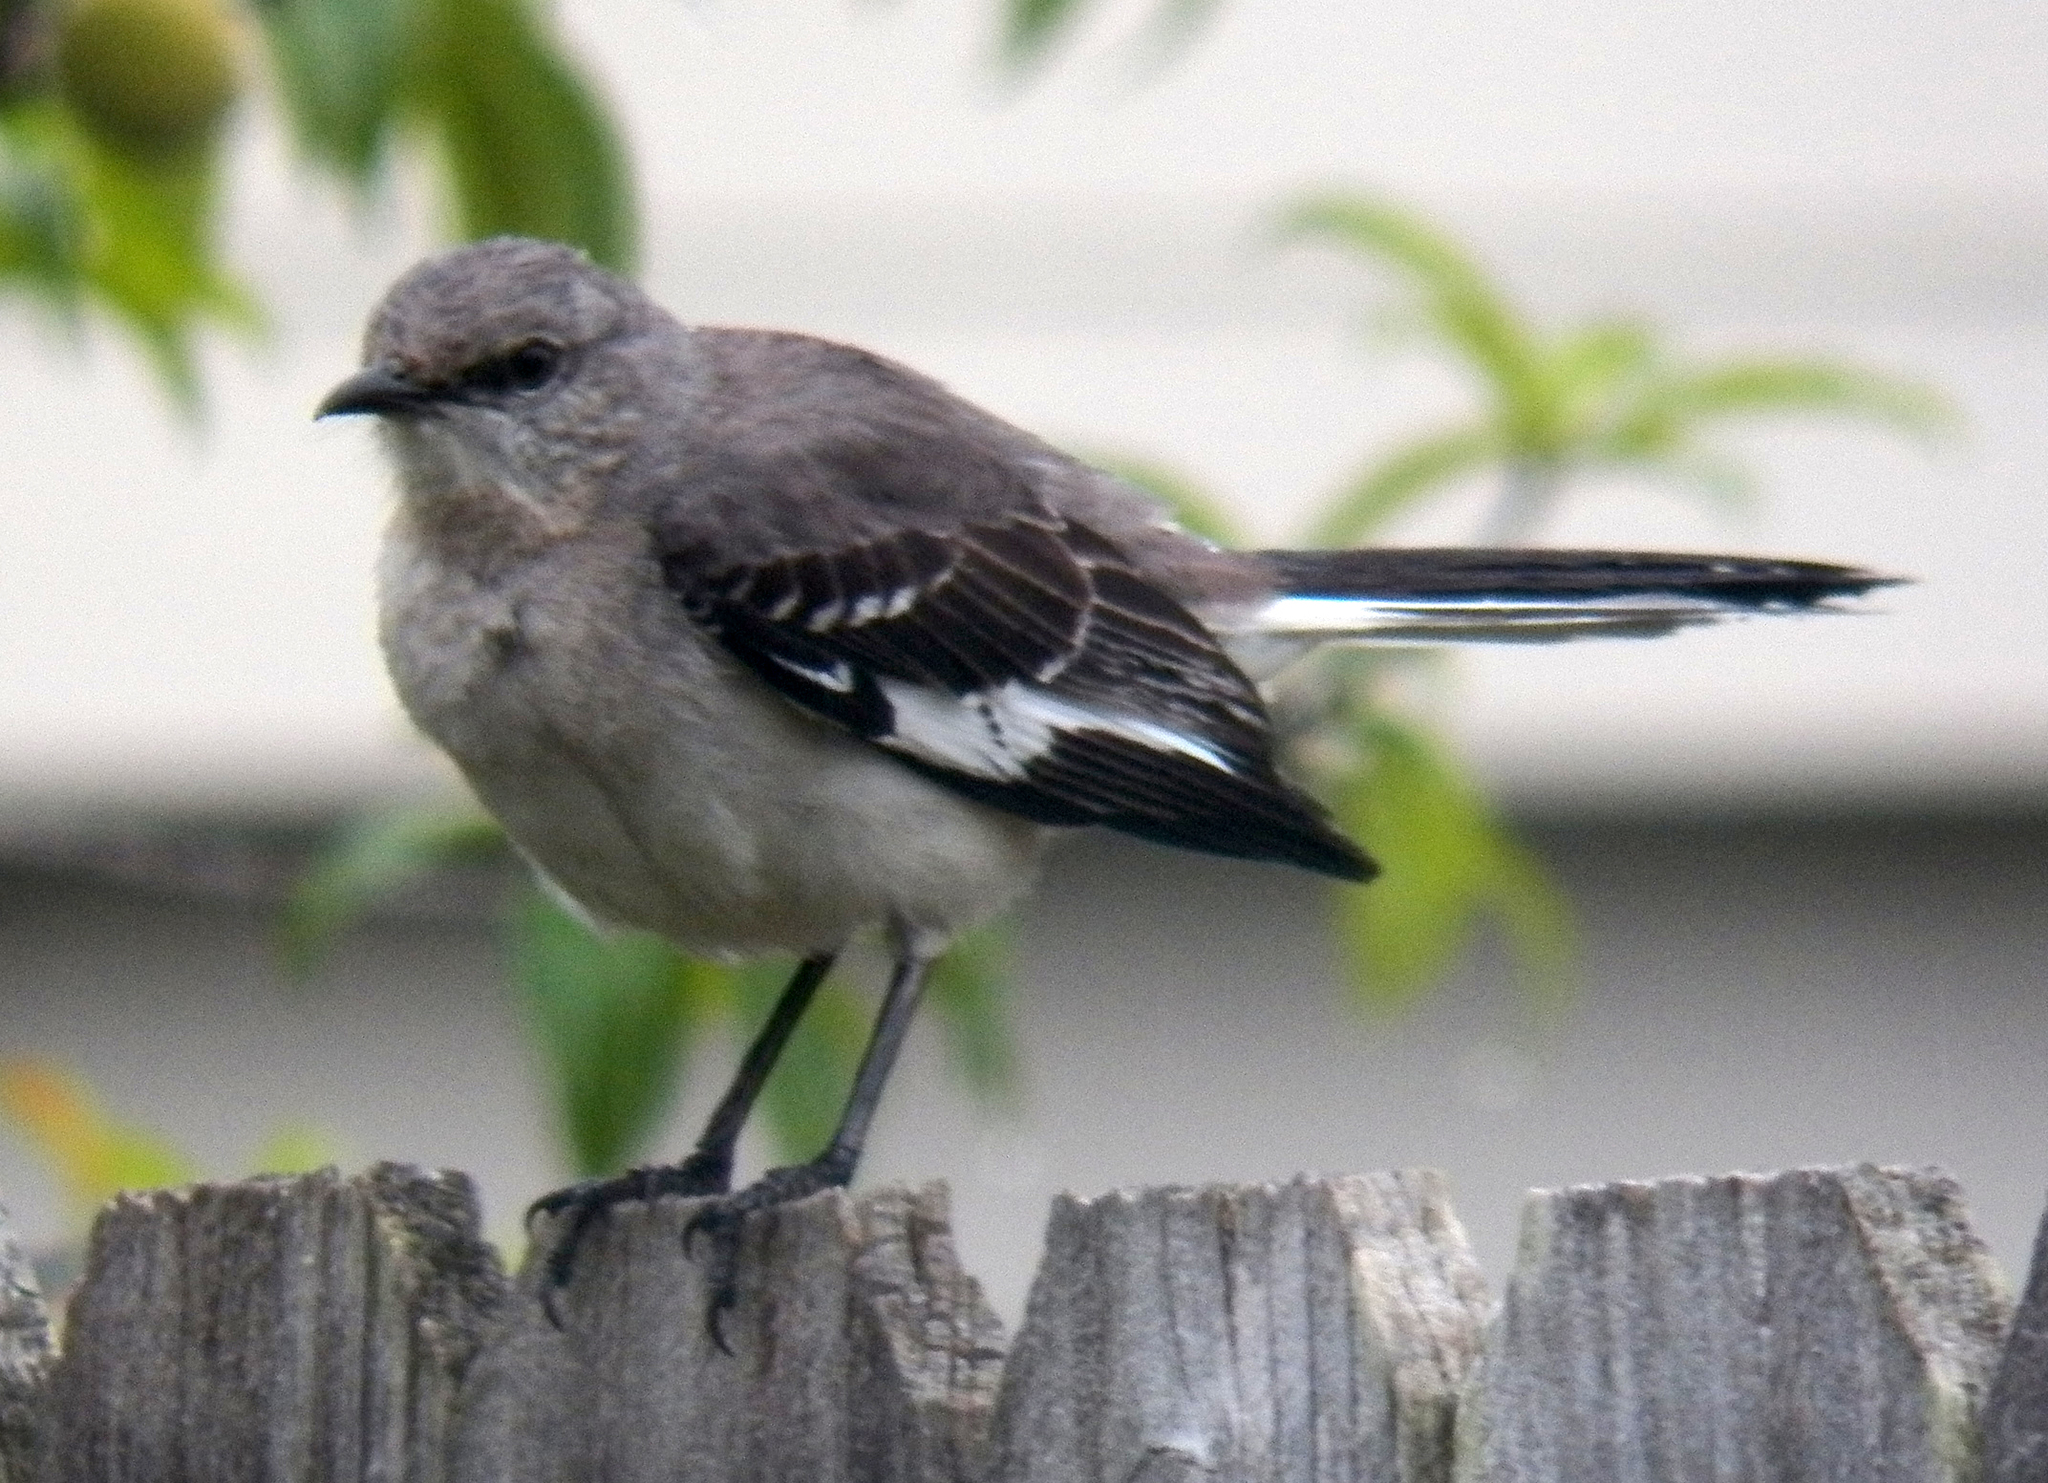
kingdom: Animalia
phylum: Chordata
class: Aves
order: Passeriformes
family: Mimidae
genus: Mimus
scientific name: Mimus polyglottos
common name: Northern mockingbird
